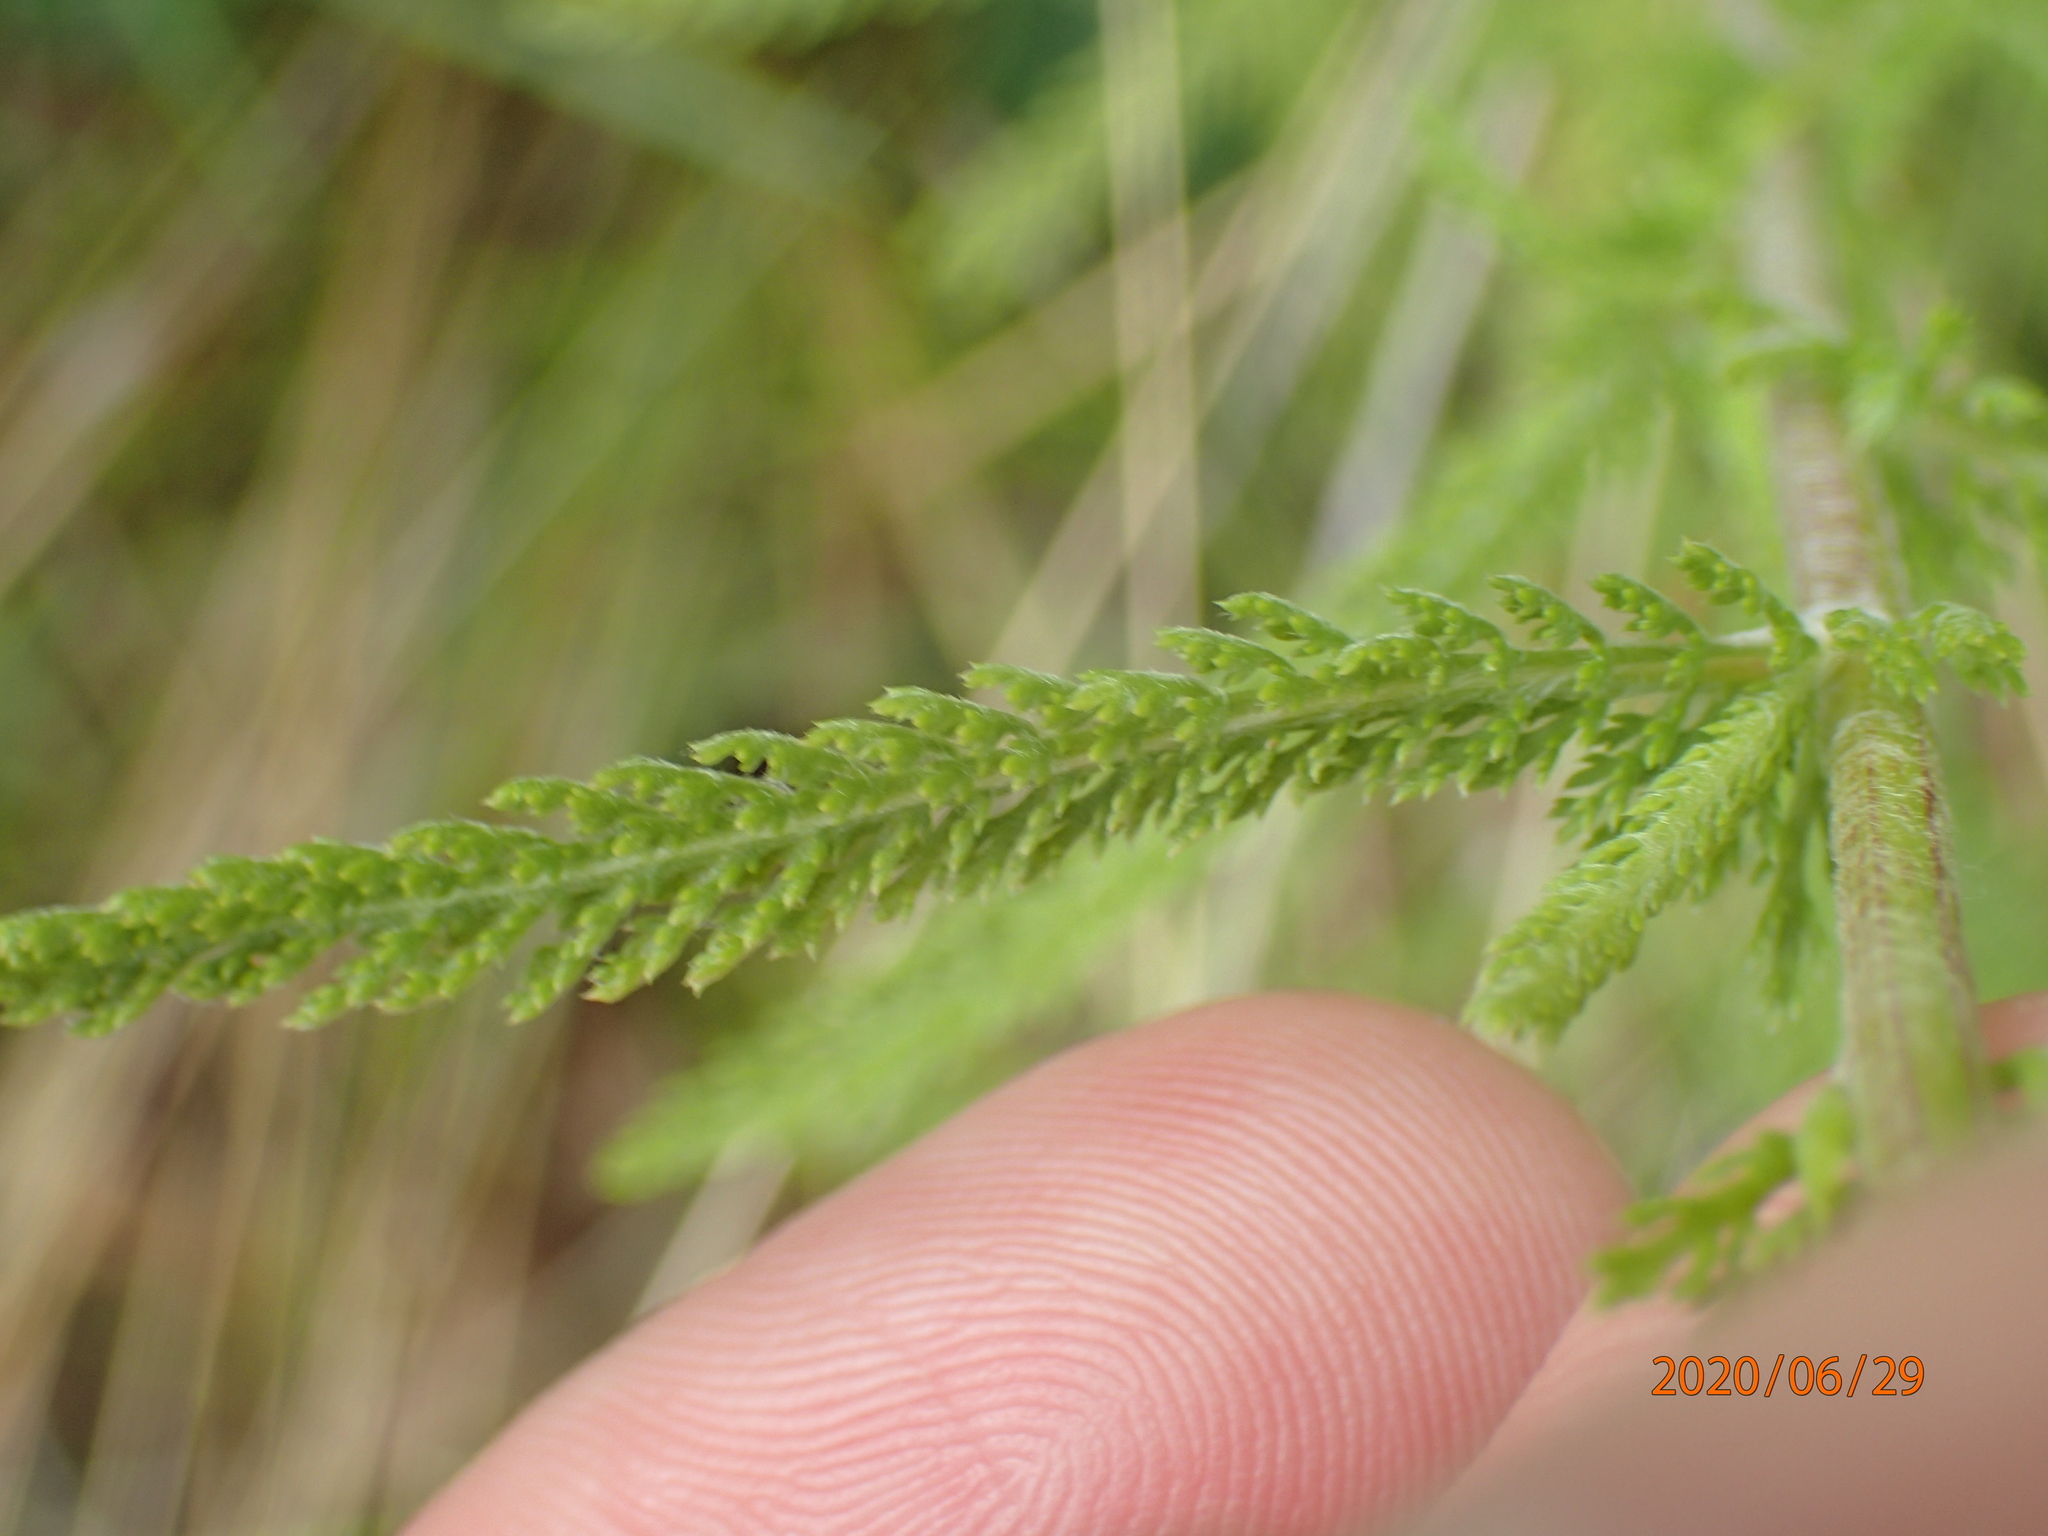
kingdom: Plantae
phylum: Tracheophyta
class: Magnoliopsida
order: Asterales
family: Asteraceae
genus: Achillea
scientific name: Achillea millefolium
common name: Yarrow
